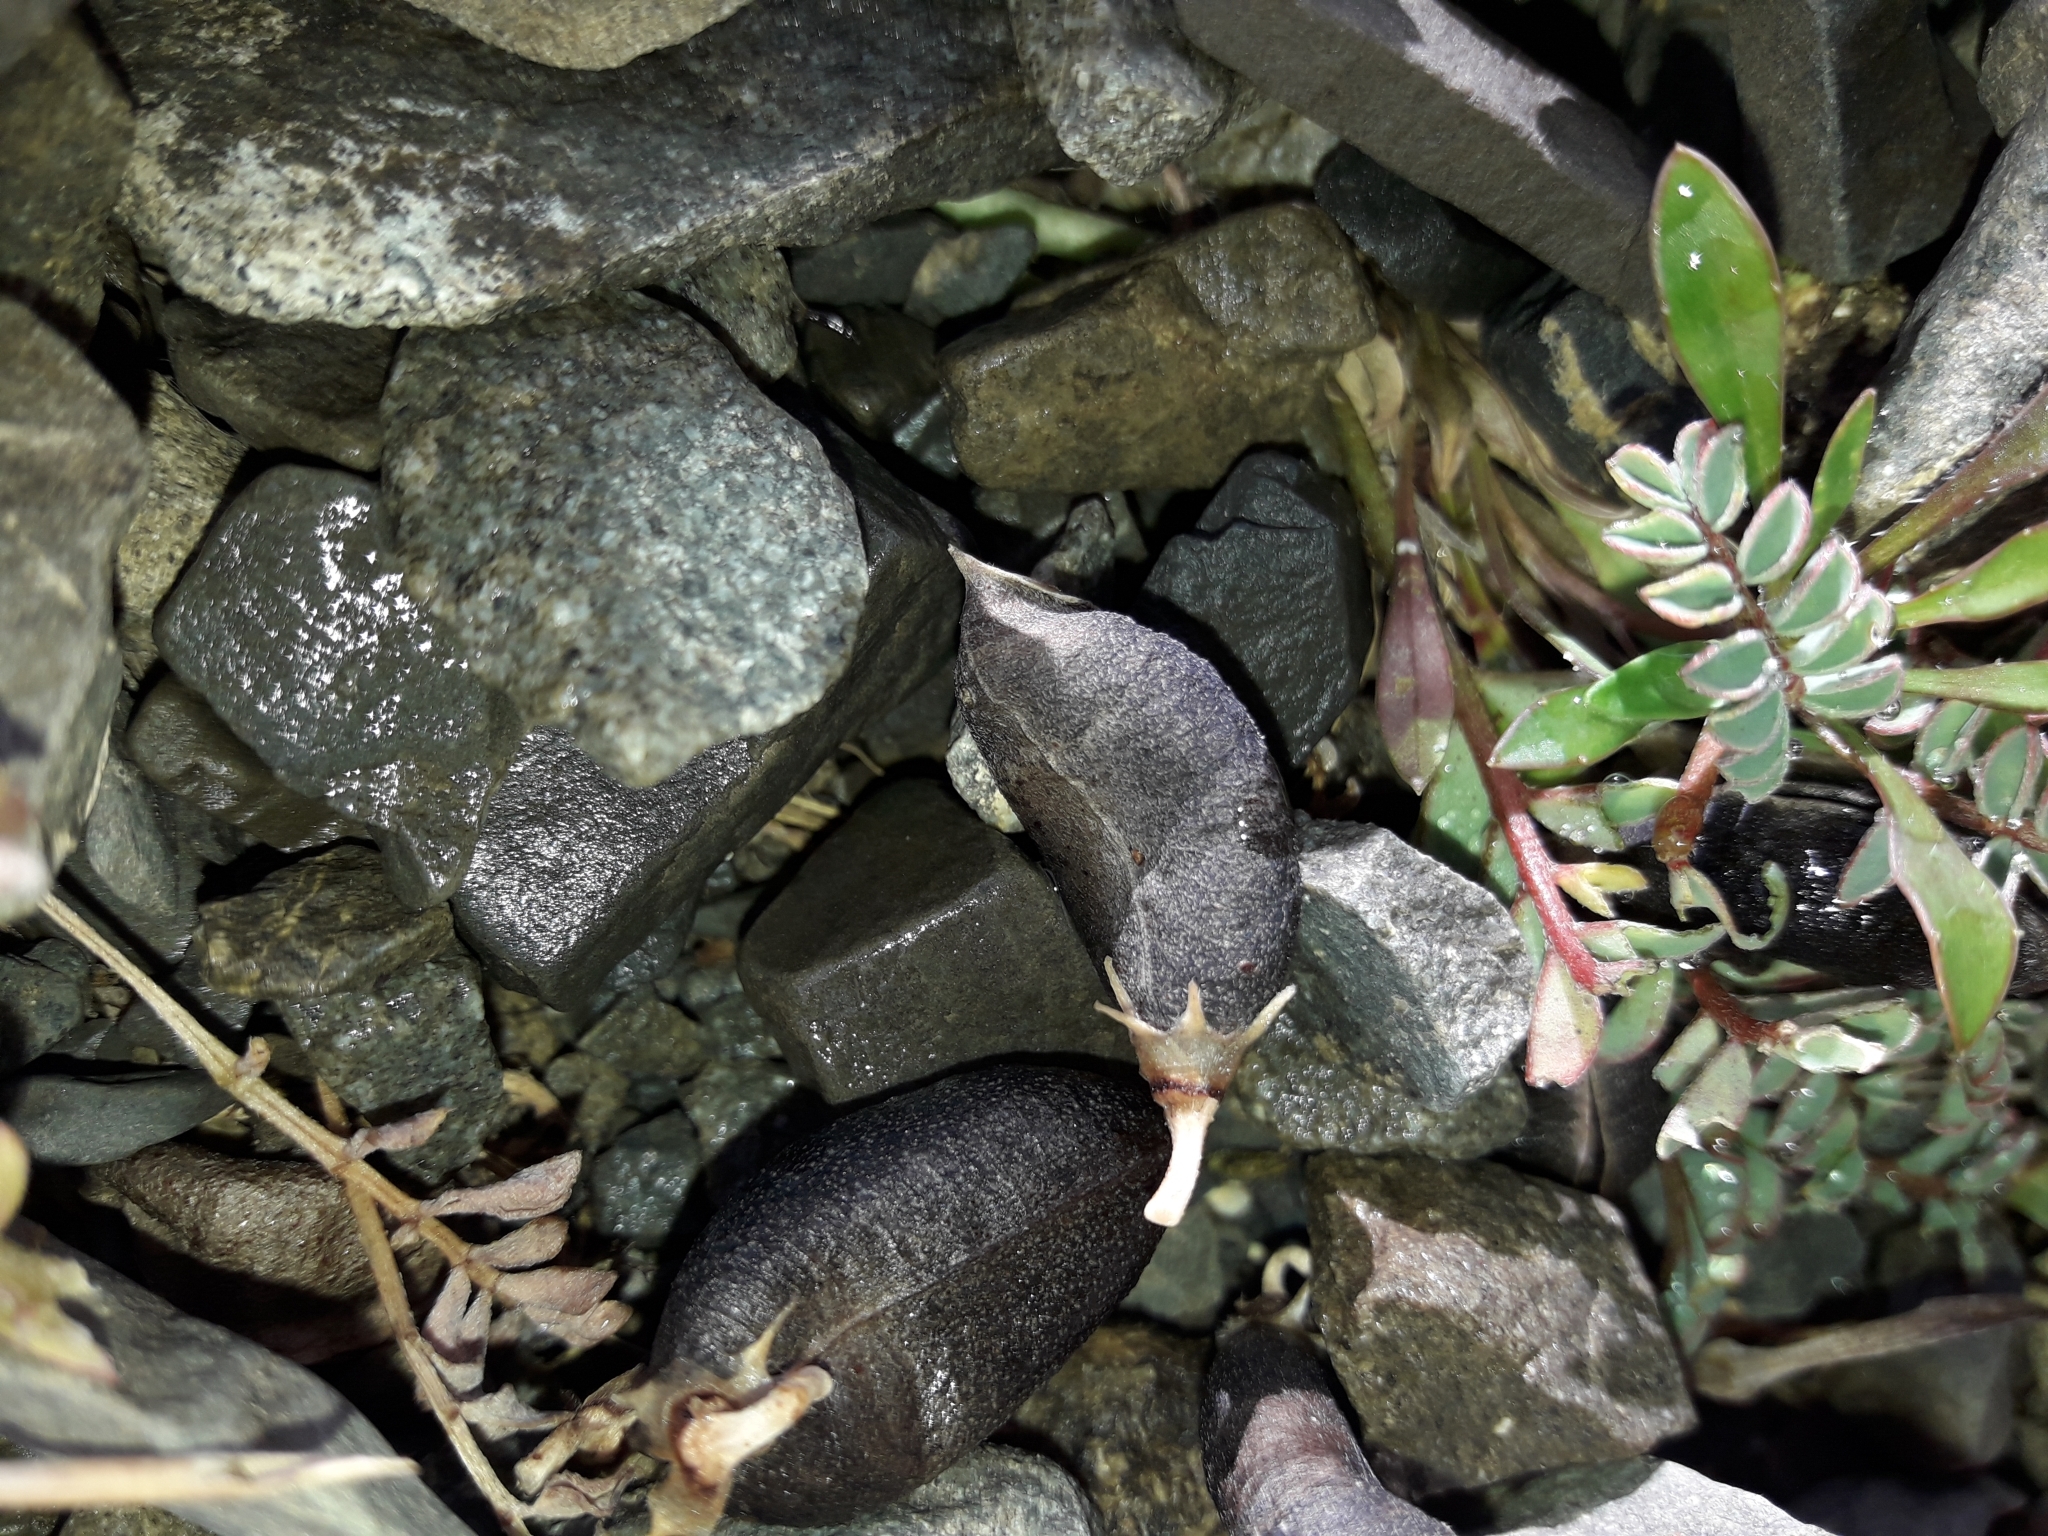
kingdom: Plantae
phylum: Tracheophyta
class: Magnoliopsida
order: Fabales
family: Fabaceae
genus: Montigena
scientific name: Montigena novae-zelandiae
